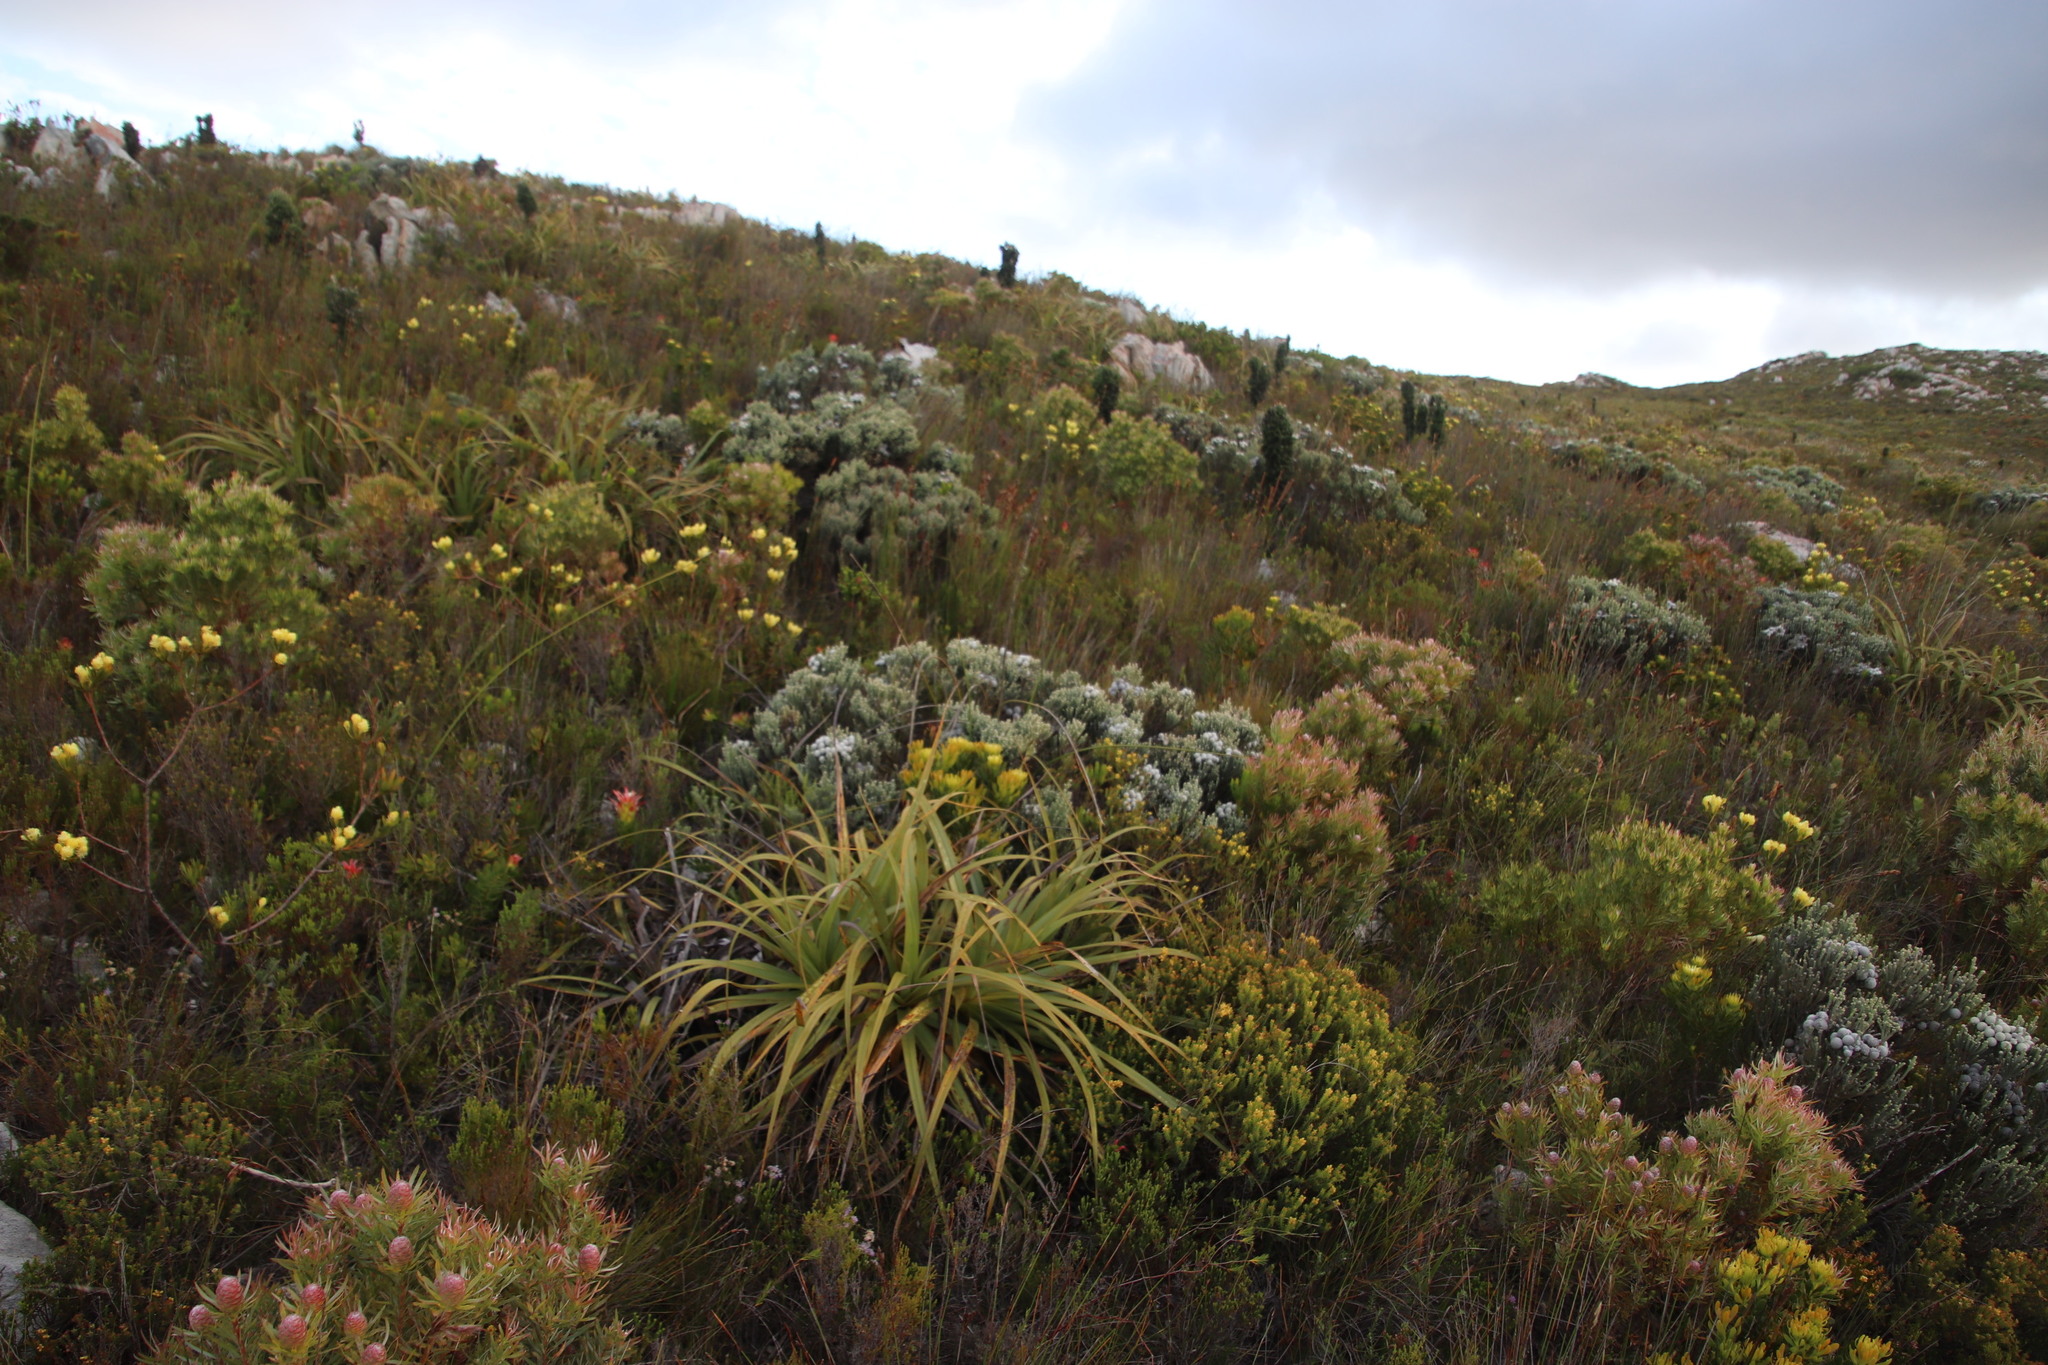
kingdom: Plantae
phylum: Tracheophyta
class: Liliopsida
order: Poales
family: Cyperaceae
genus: Tetraria
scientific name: Tetraria thermalis
